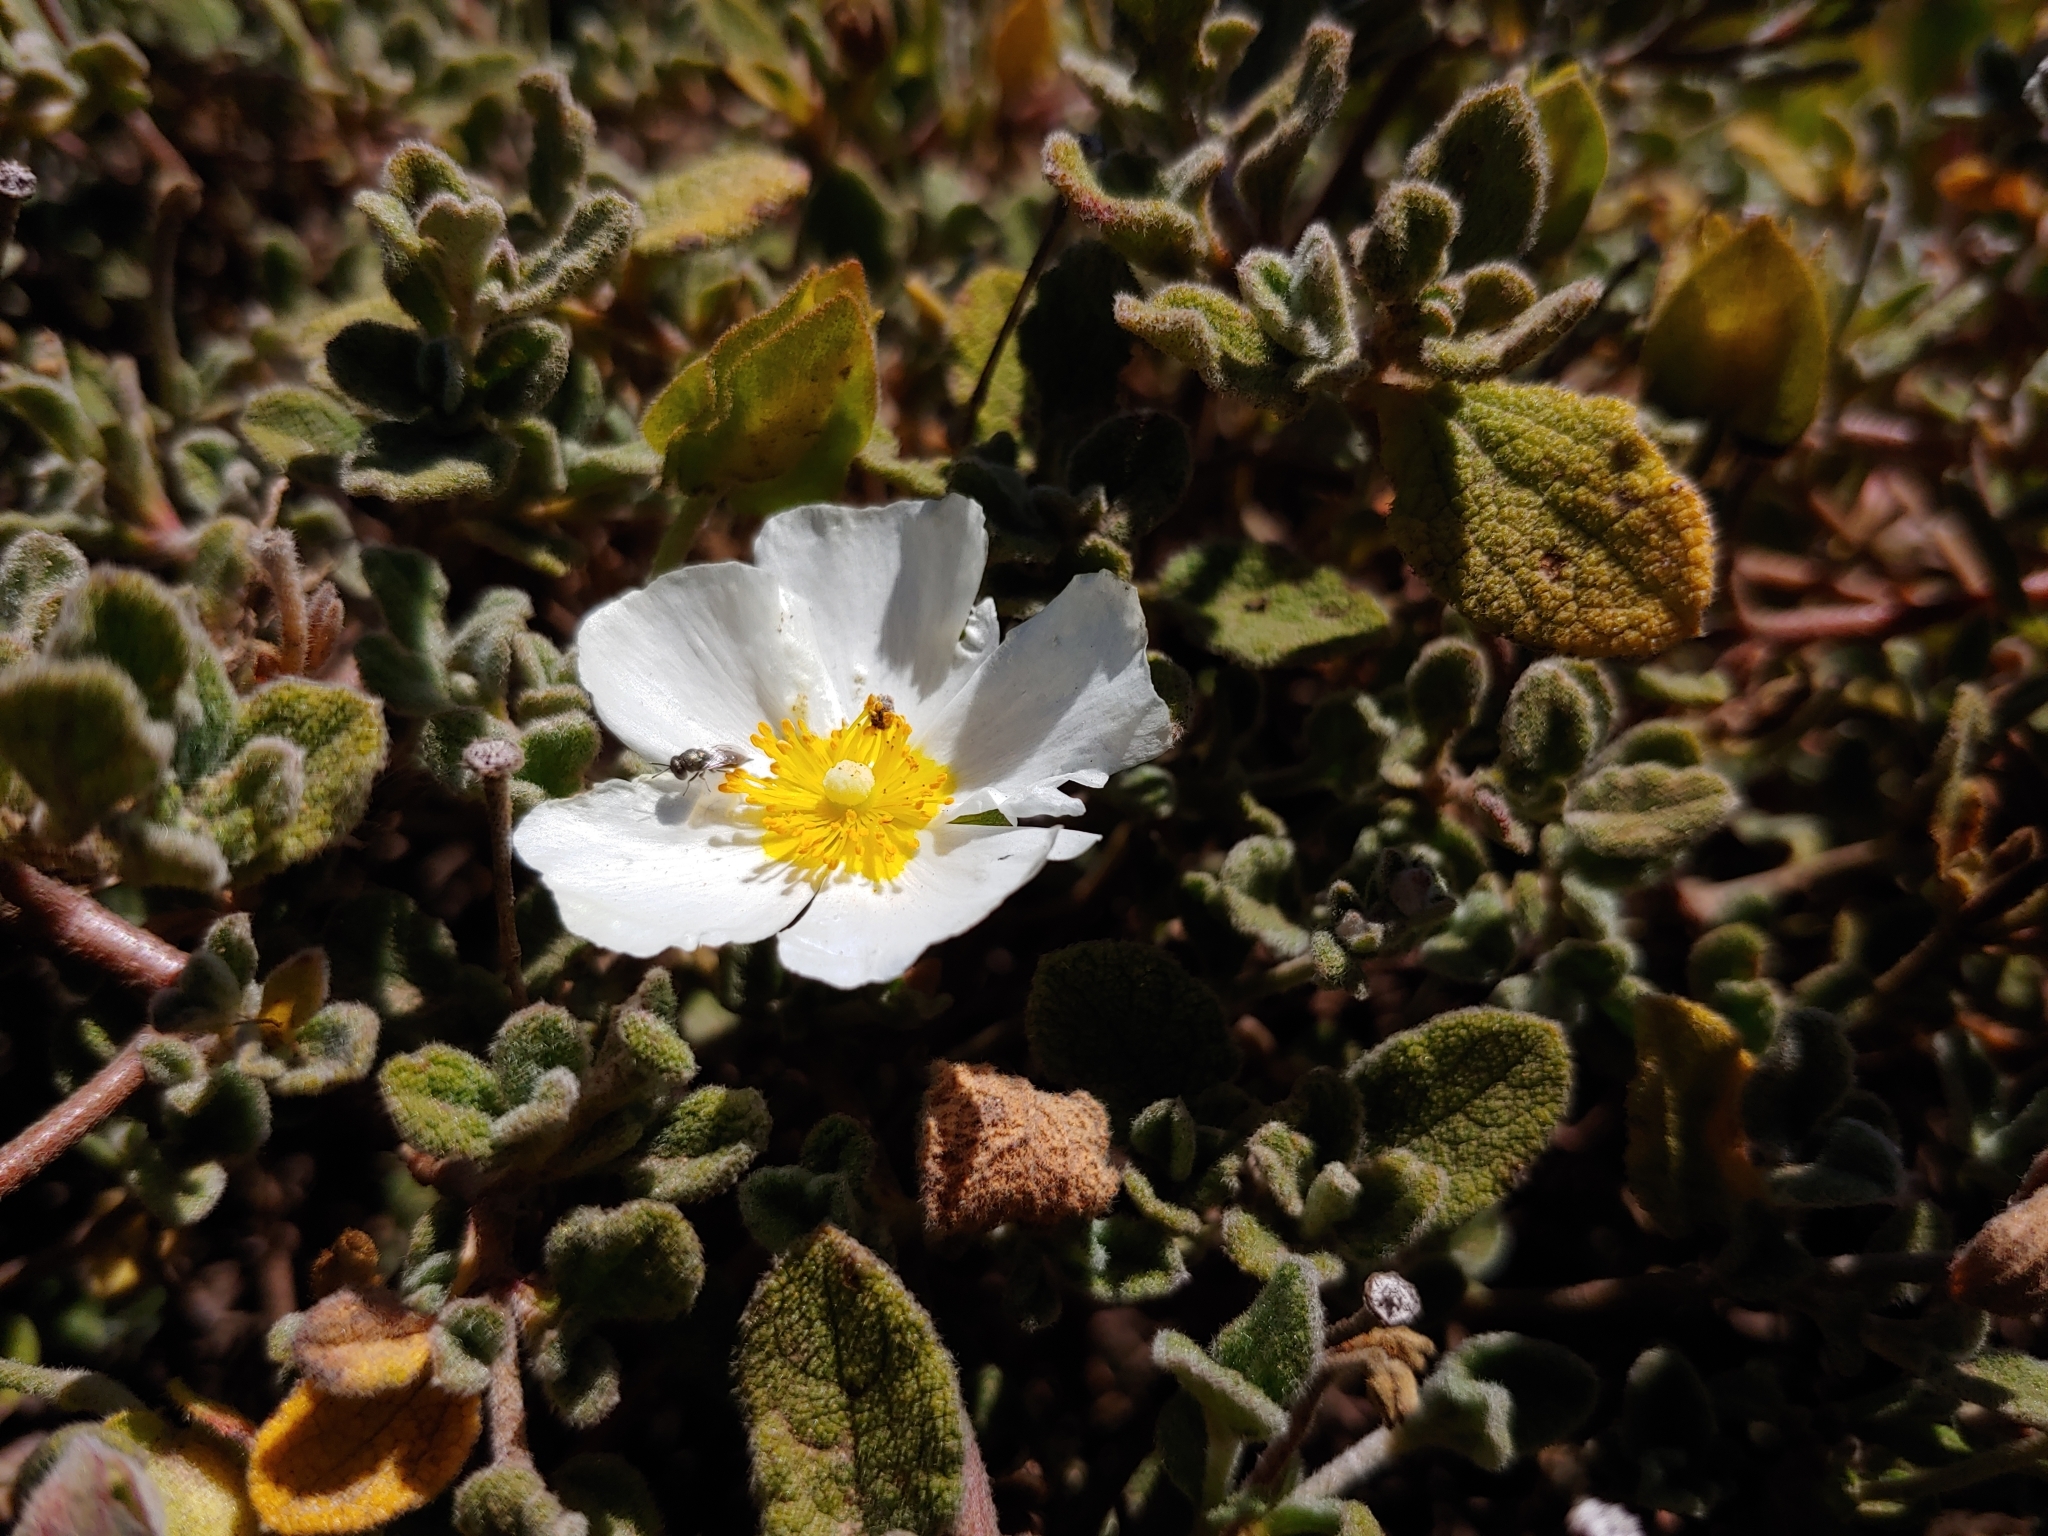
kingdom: Plantae
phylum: Tracheophyta
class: Magnoliopsida
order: Malvales
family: Cistaceae
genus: Cistus
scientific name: Cistus salviifolius
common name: Salvia cistus
